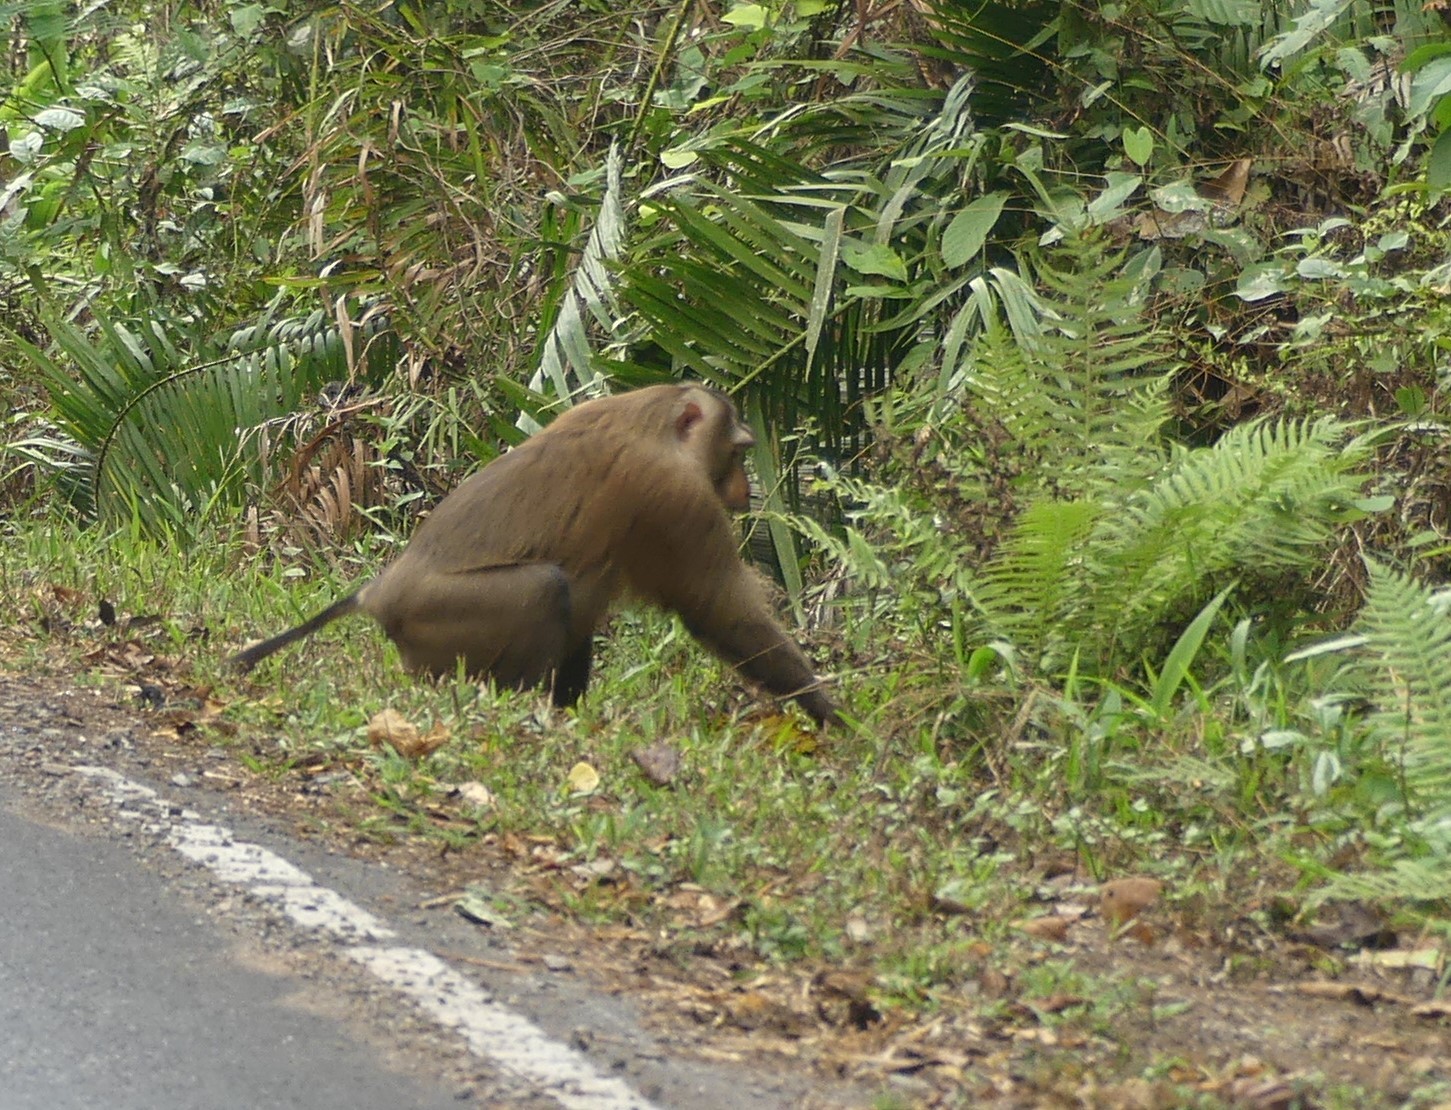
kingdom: Animalia
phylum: Chordata
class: Mammalia
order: Primates
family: Cercopithecidae
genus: Macaca
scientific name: Macaca leonina
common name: Northern pig-tailed macaque
